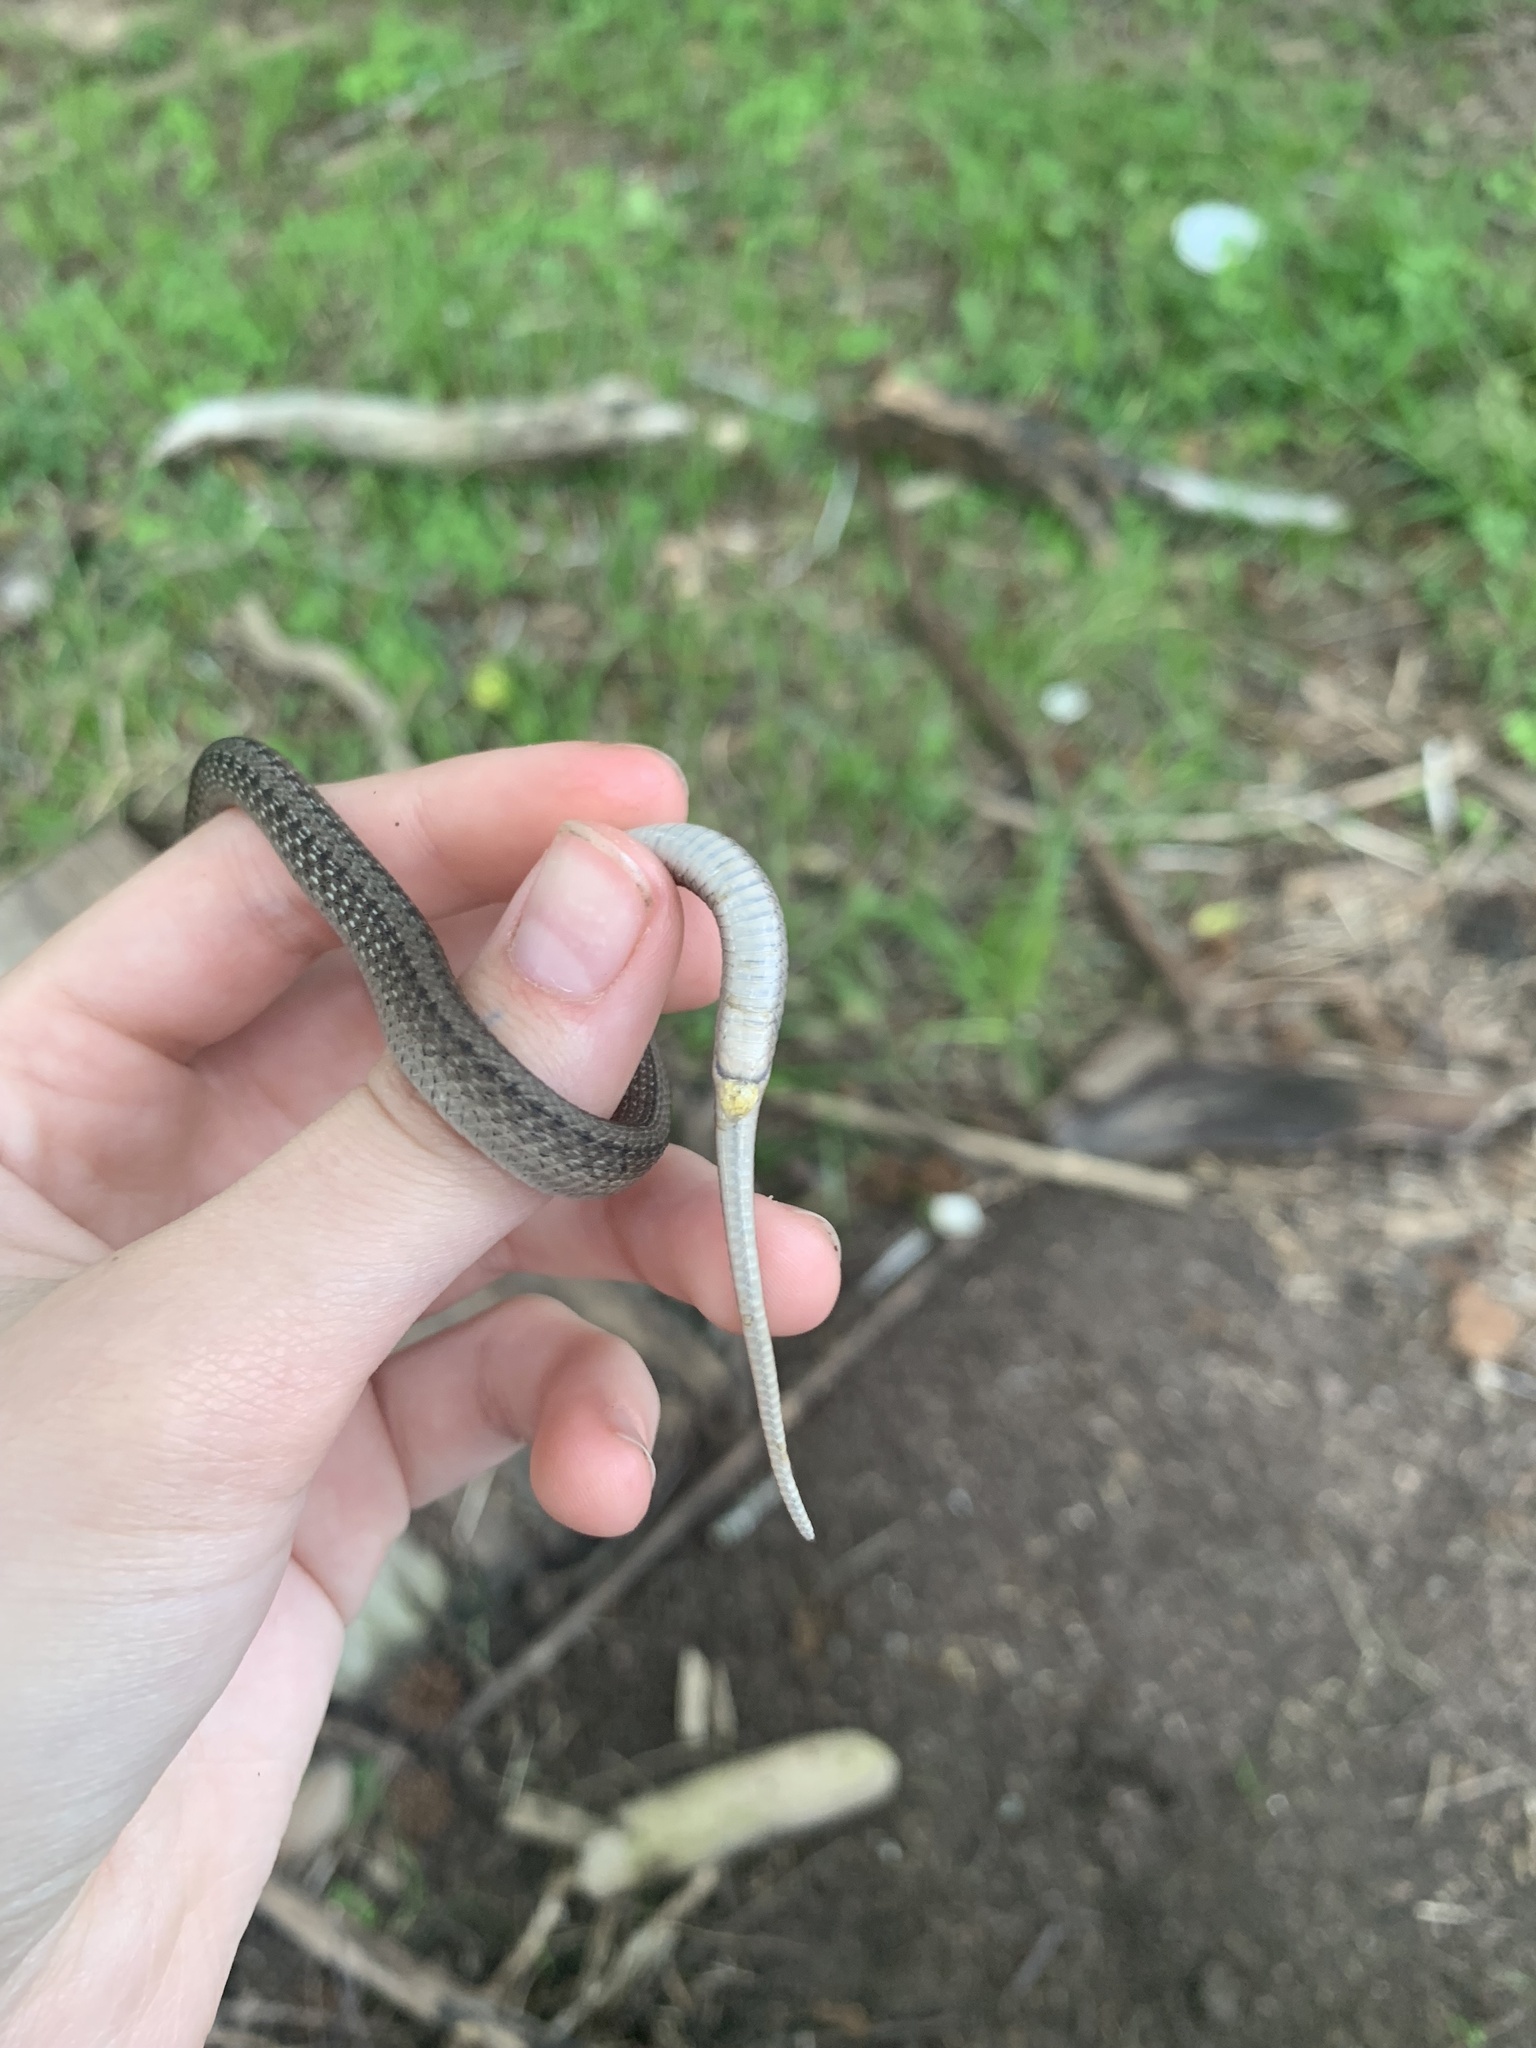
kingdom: Animalia
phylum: Chordata
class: Squamata
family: Colubridae
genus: Storeria
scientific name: Storeria dekayi
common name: (dekay’s) brown snake
